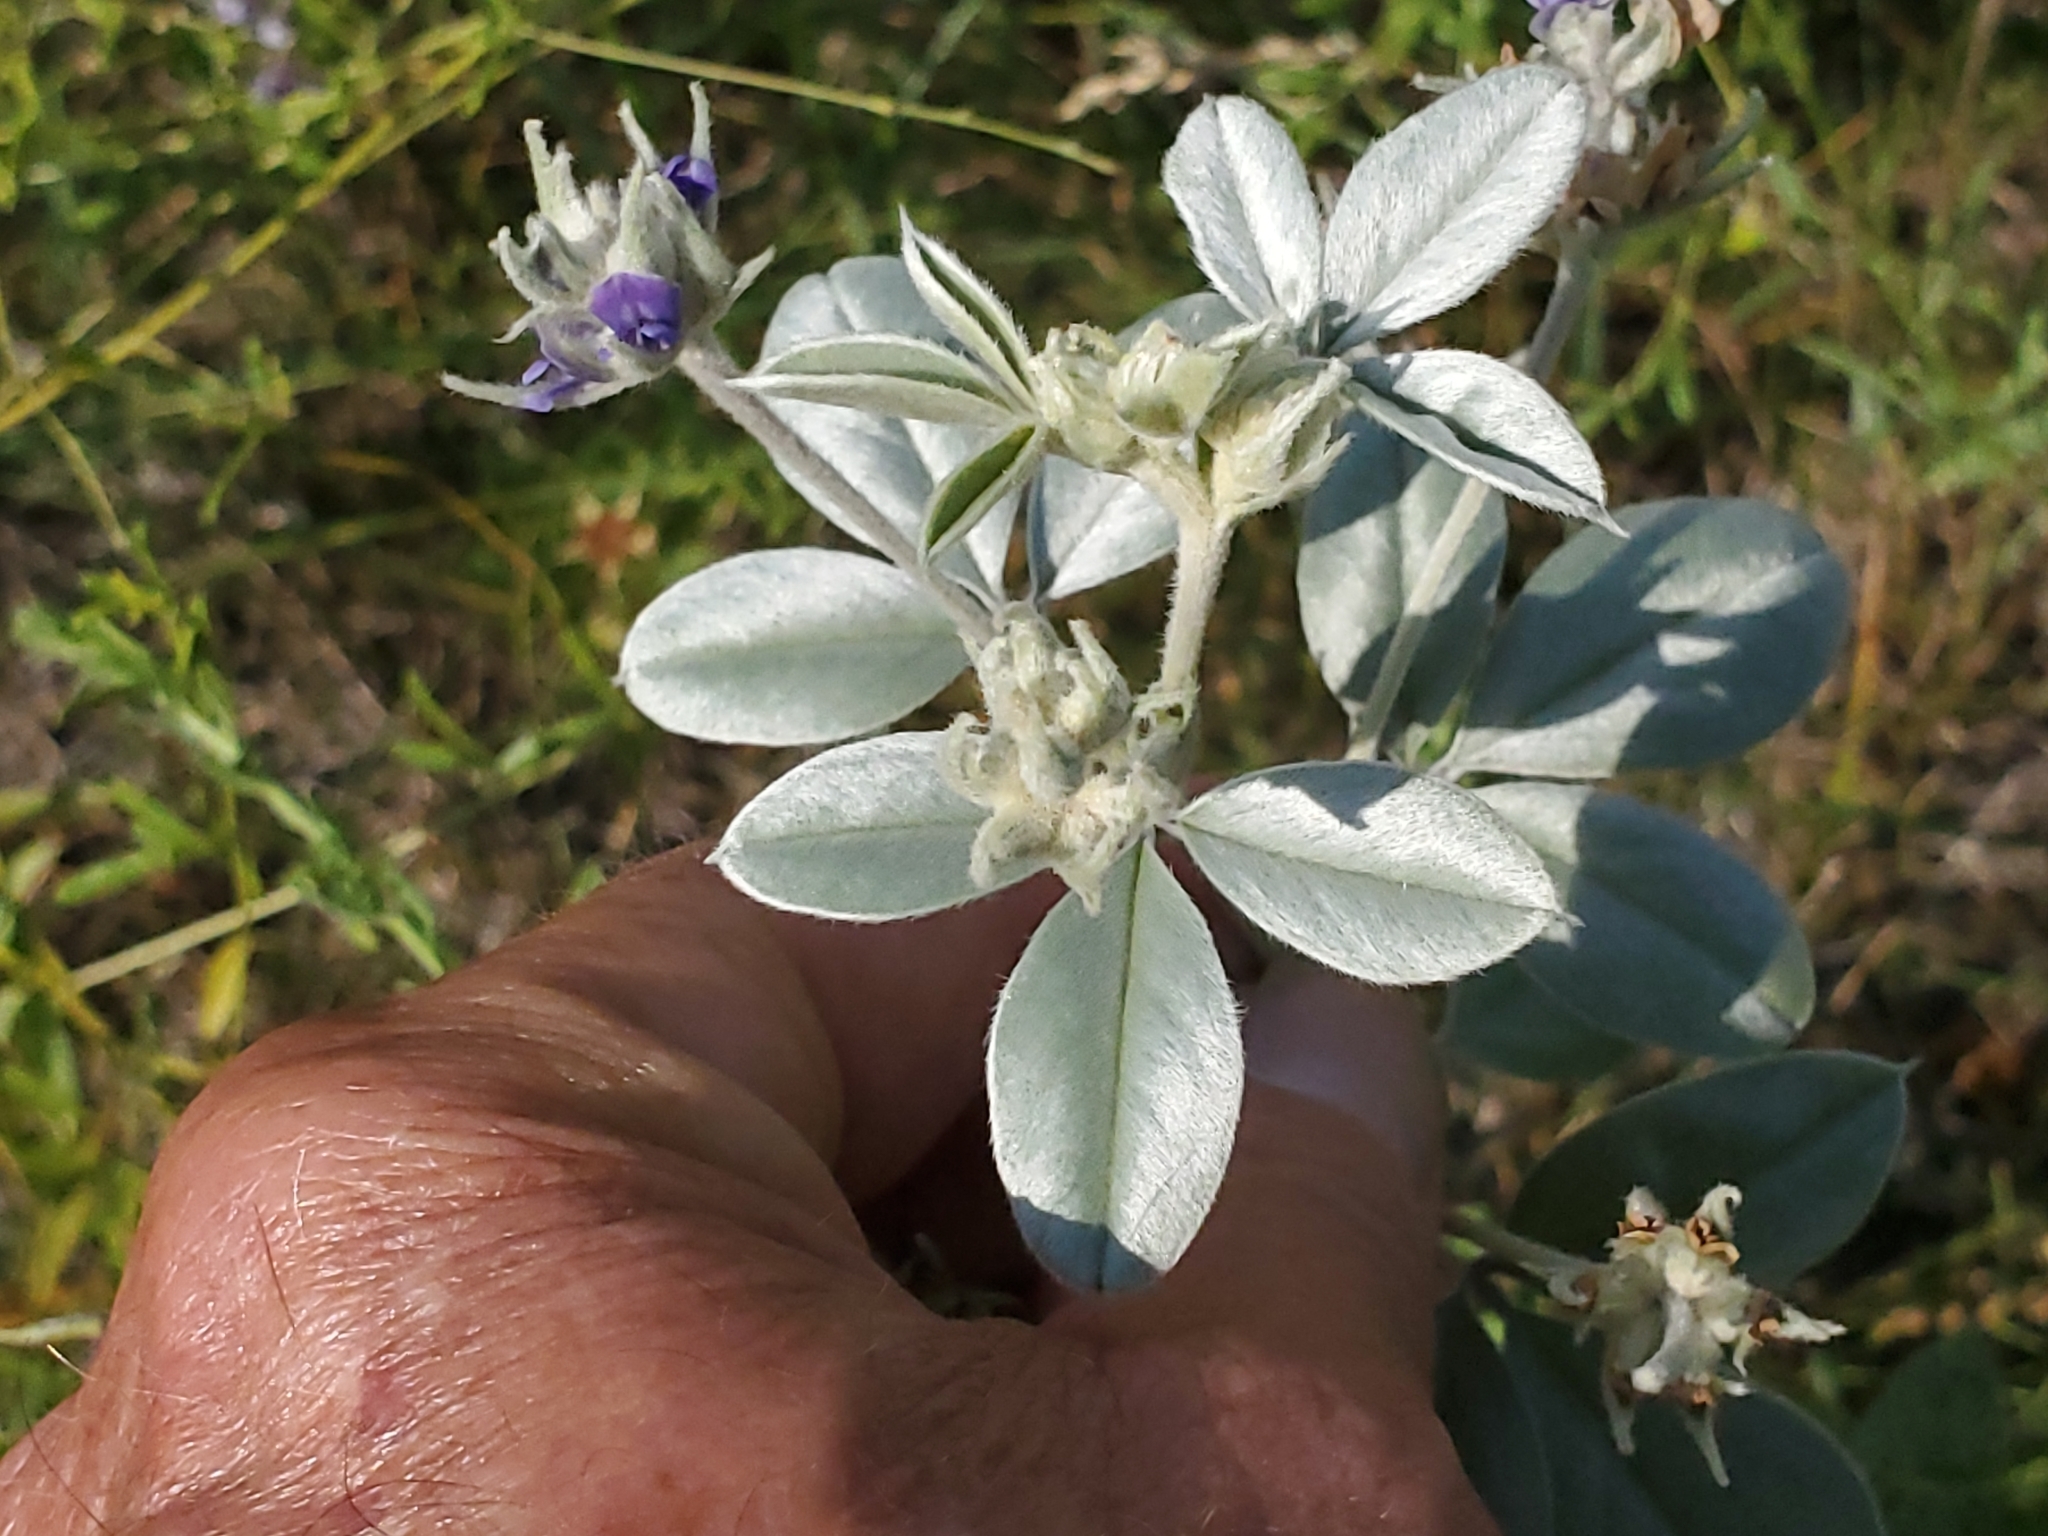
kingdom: Plantae
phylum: Tracheophyta
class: Magnoliopsida
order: Fabales
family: Fabaceae
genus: Pediomelum
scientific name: Pediomelum argophyllum
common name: Silver-leaved indian breadroot
